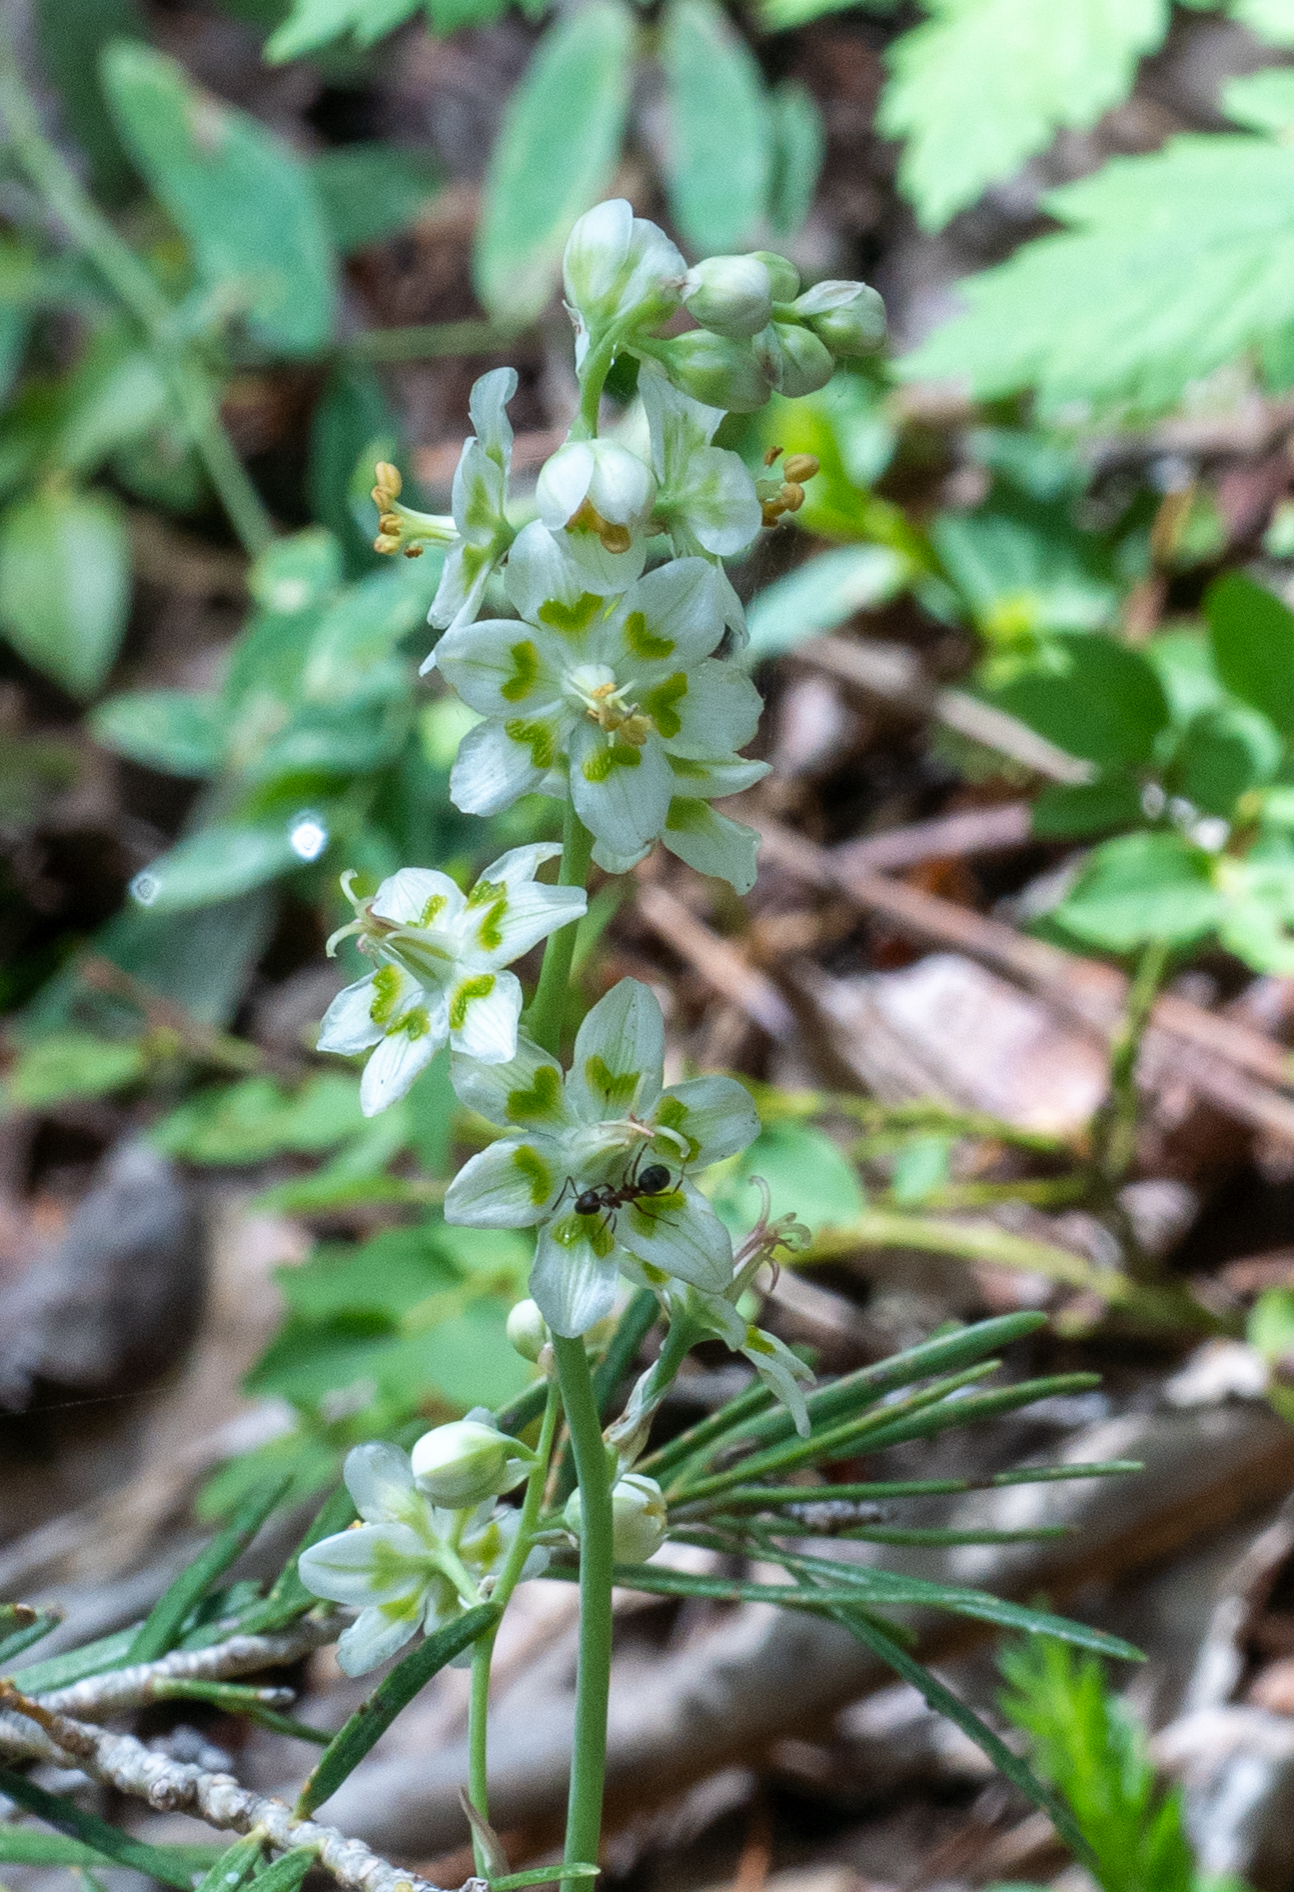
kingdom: Plantae
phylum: Tracheophyta
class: Liliopsida
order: Liliales
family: Melanthiaceae
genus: Anticlea
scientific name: Anticlea elegans
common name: Mountain death camas
